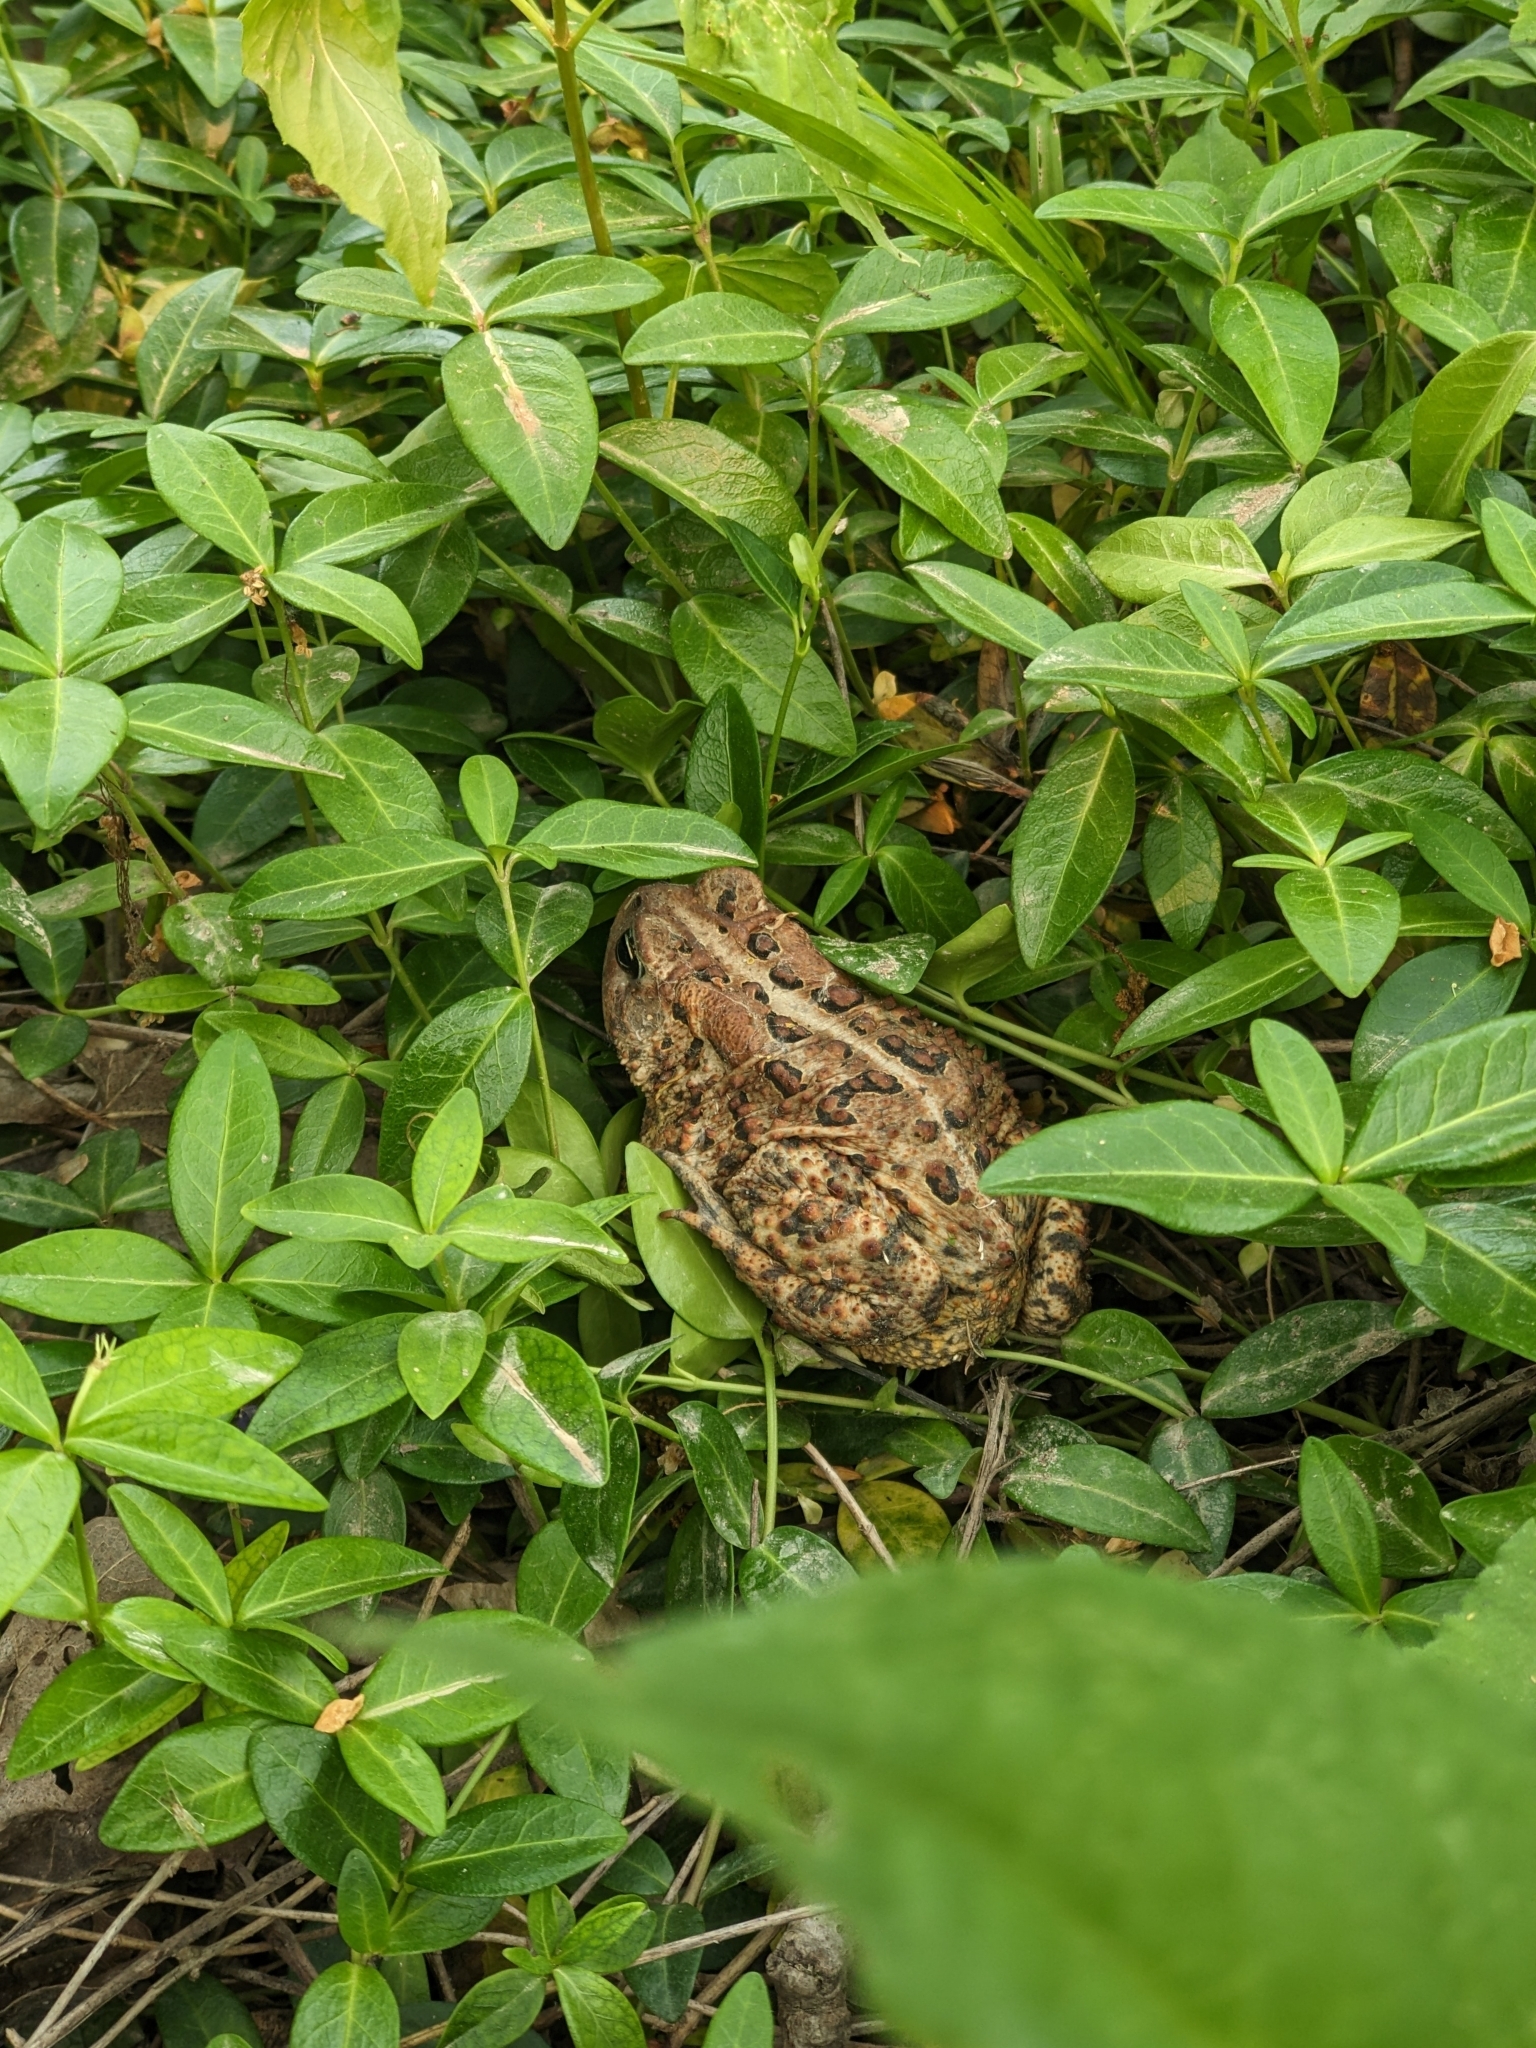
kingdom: Animalia
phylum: Chordata
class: Amphibia
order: Anura
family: Bufonidae
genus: Anaxyrus
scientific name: Anaxyrus americanus
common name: American toad
